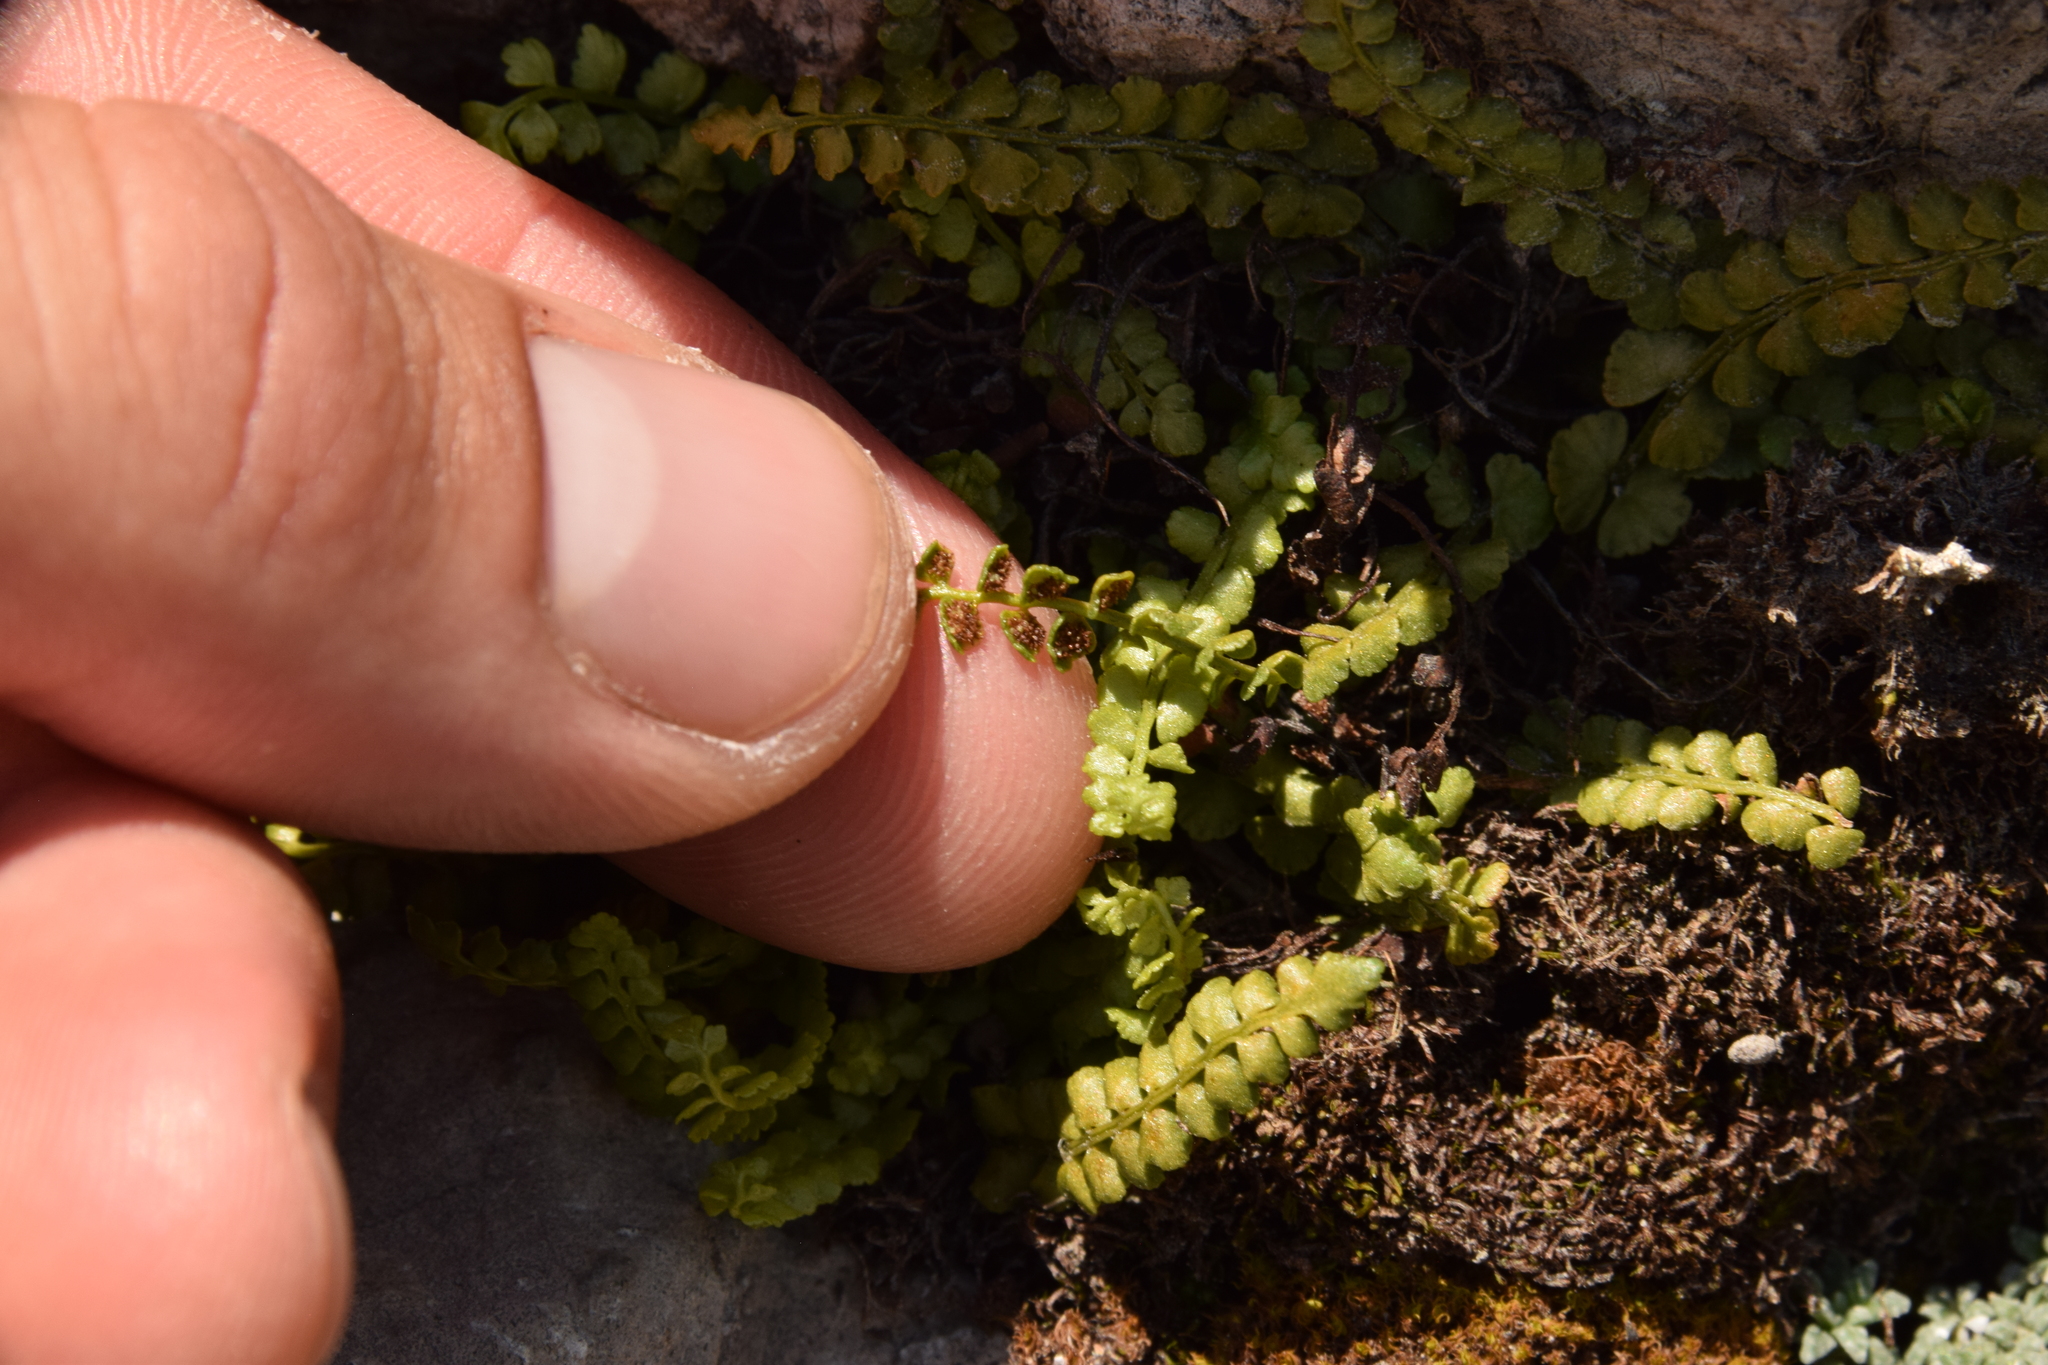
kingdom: Plantae
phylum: Tracheophyta
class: Polypodiopsida
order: Polypodiales
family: Aspleniaceae
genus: Asplenium
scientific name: Asplenium viride
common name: Green spleenwort
